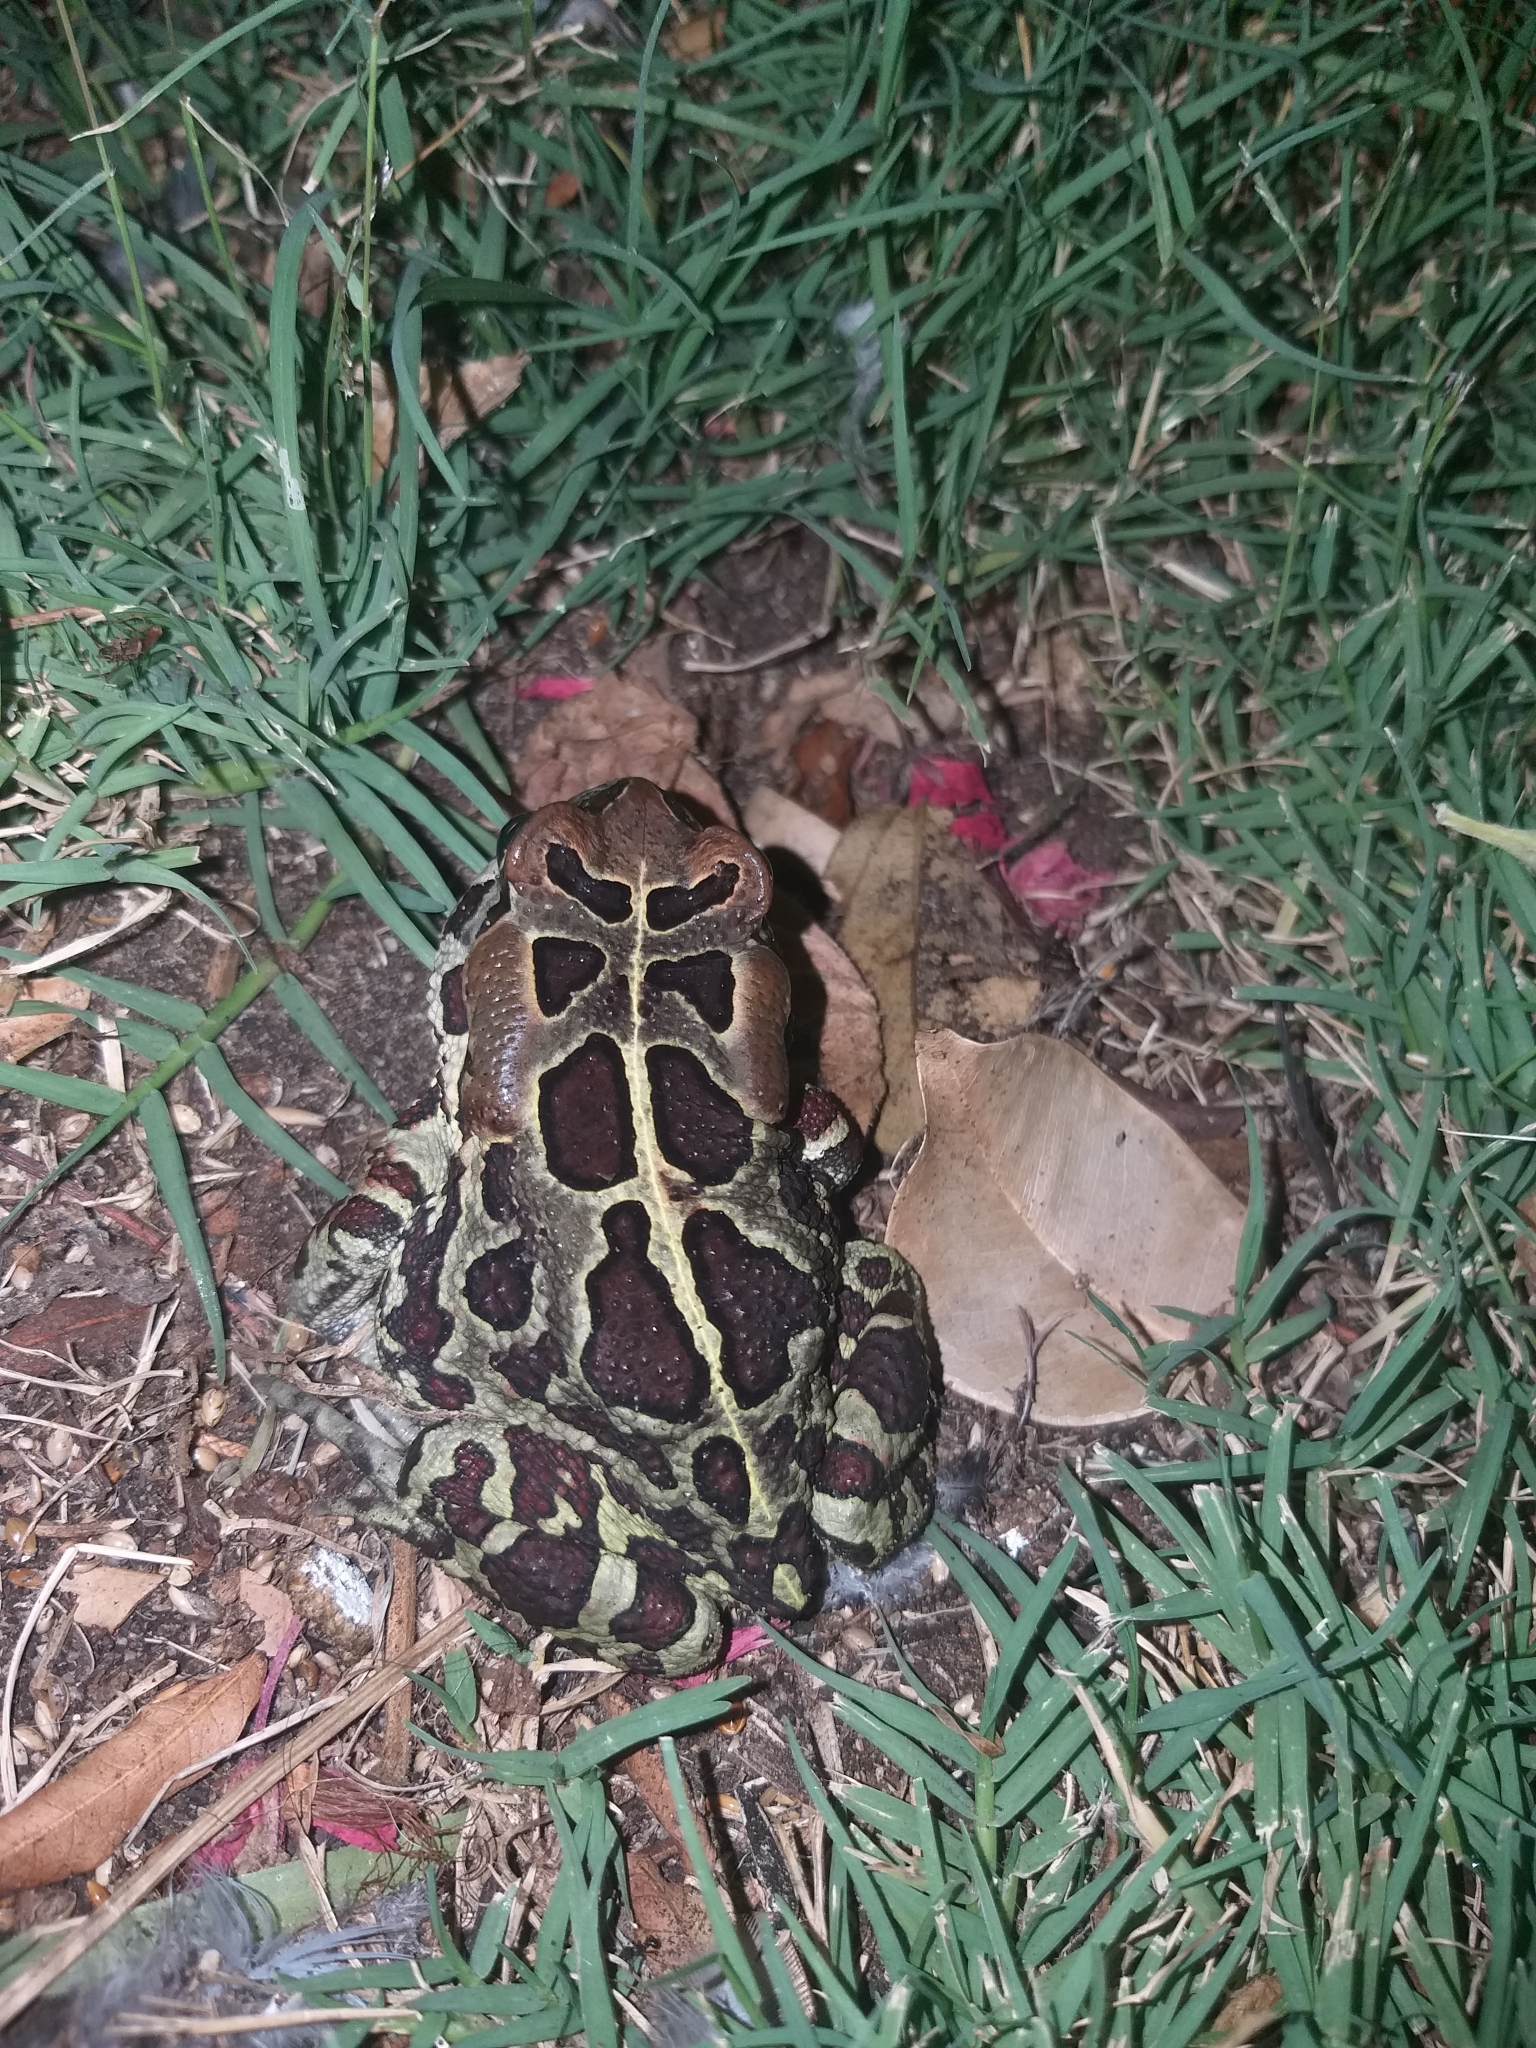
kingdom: Animalia
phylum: Chordata
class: Amphibia
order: Anura
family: Bufonidae
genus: Sclerophrys
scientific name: Sclerophrys pantherina
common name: Panther toad
